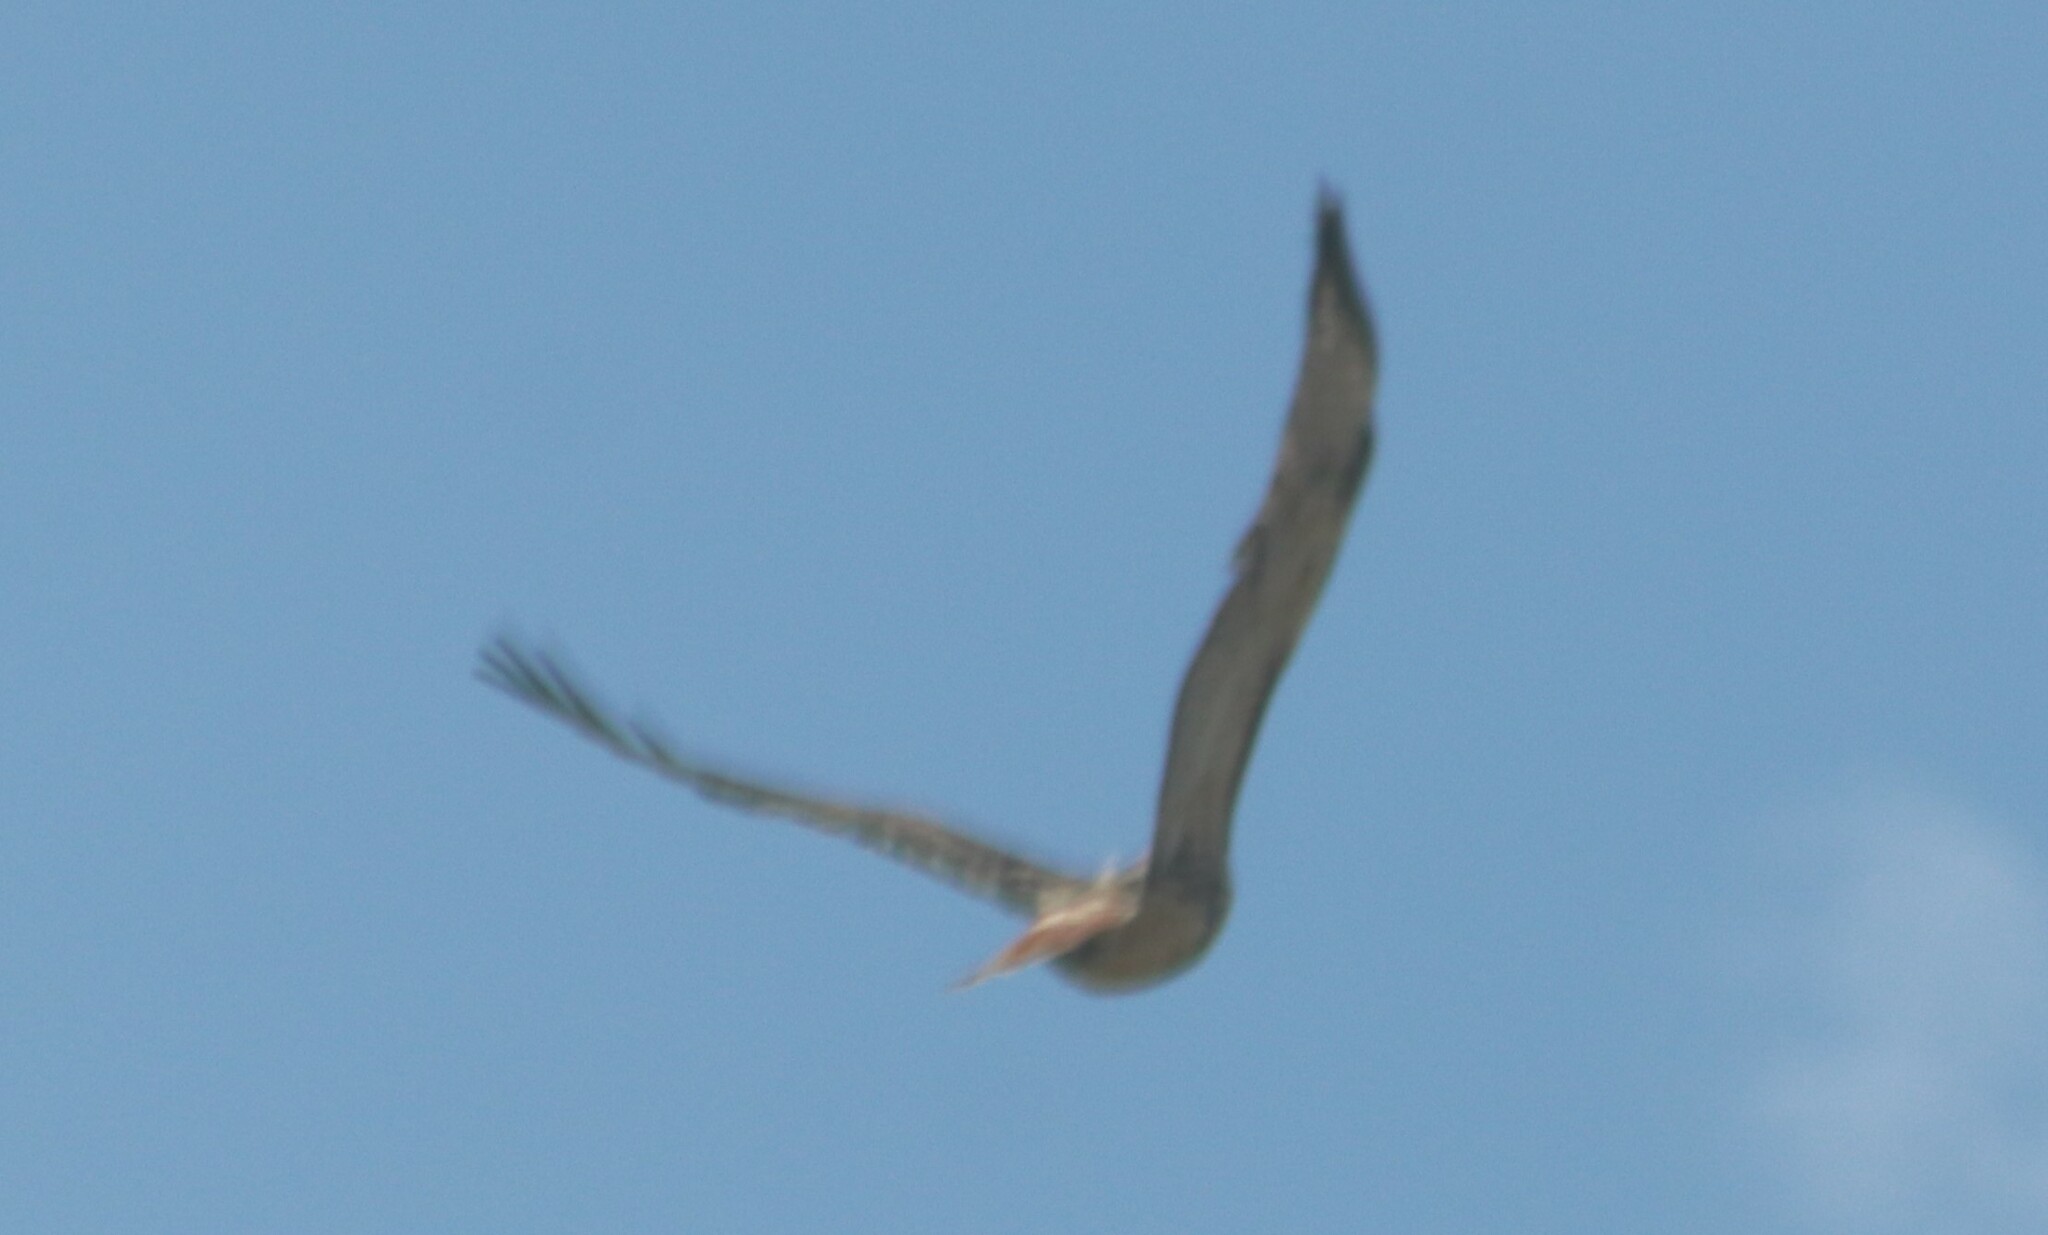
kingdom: Animalia
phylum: Chordata
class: Aves
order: Accipitriformes
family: Accipitridae
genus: Buteo
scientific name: Buteo jamaicensis
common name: Red-tailed hawk
